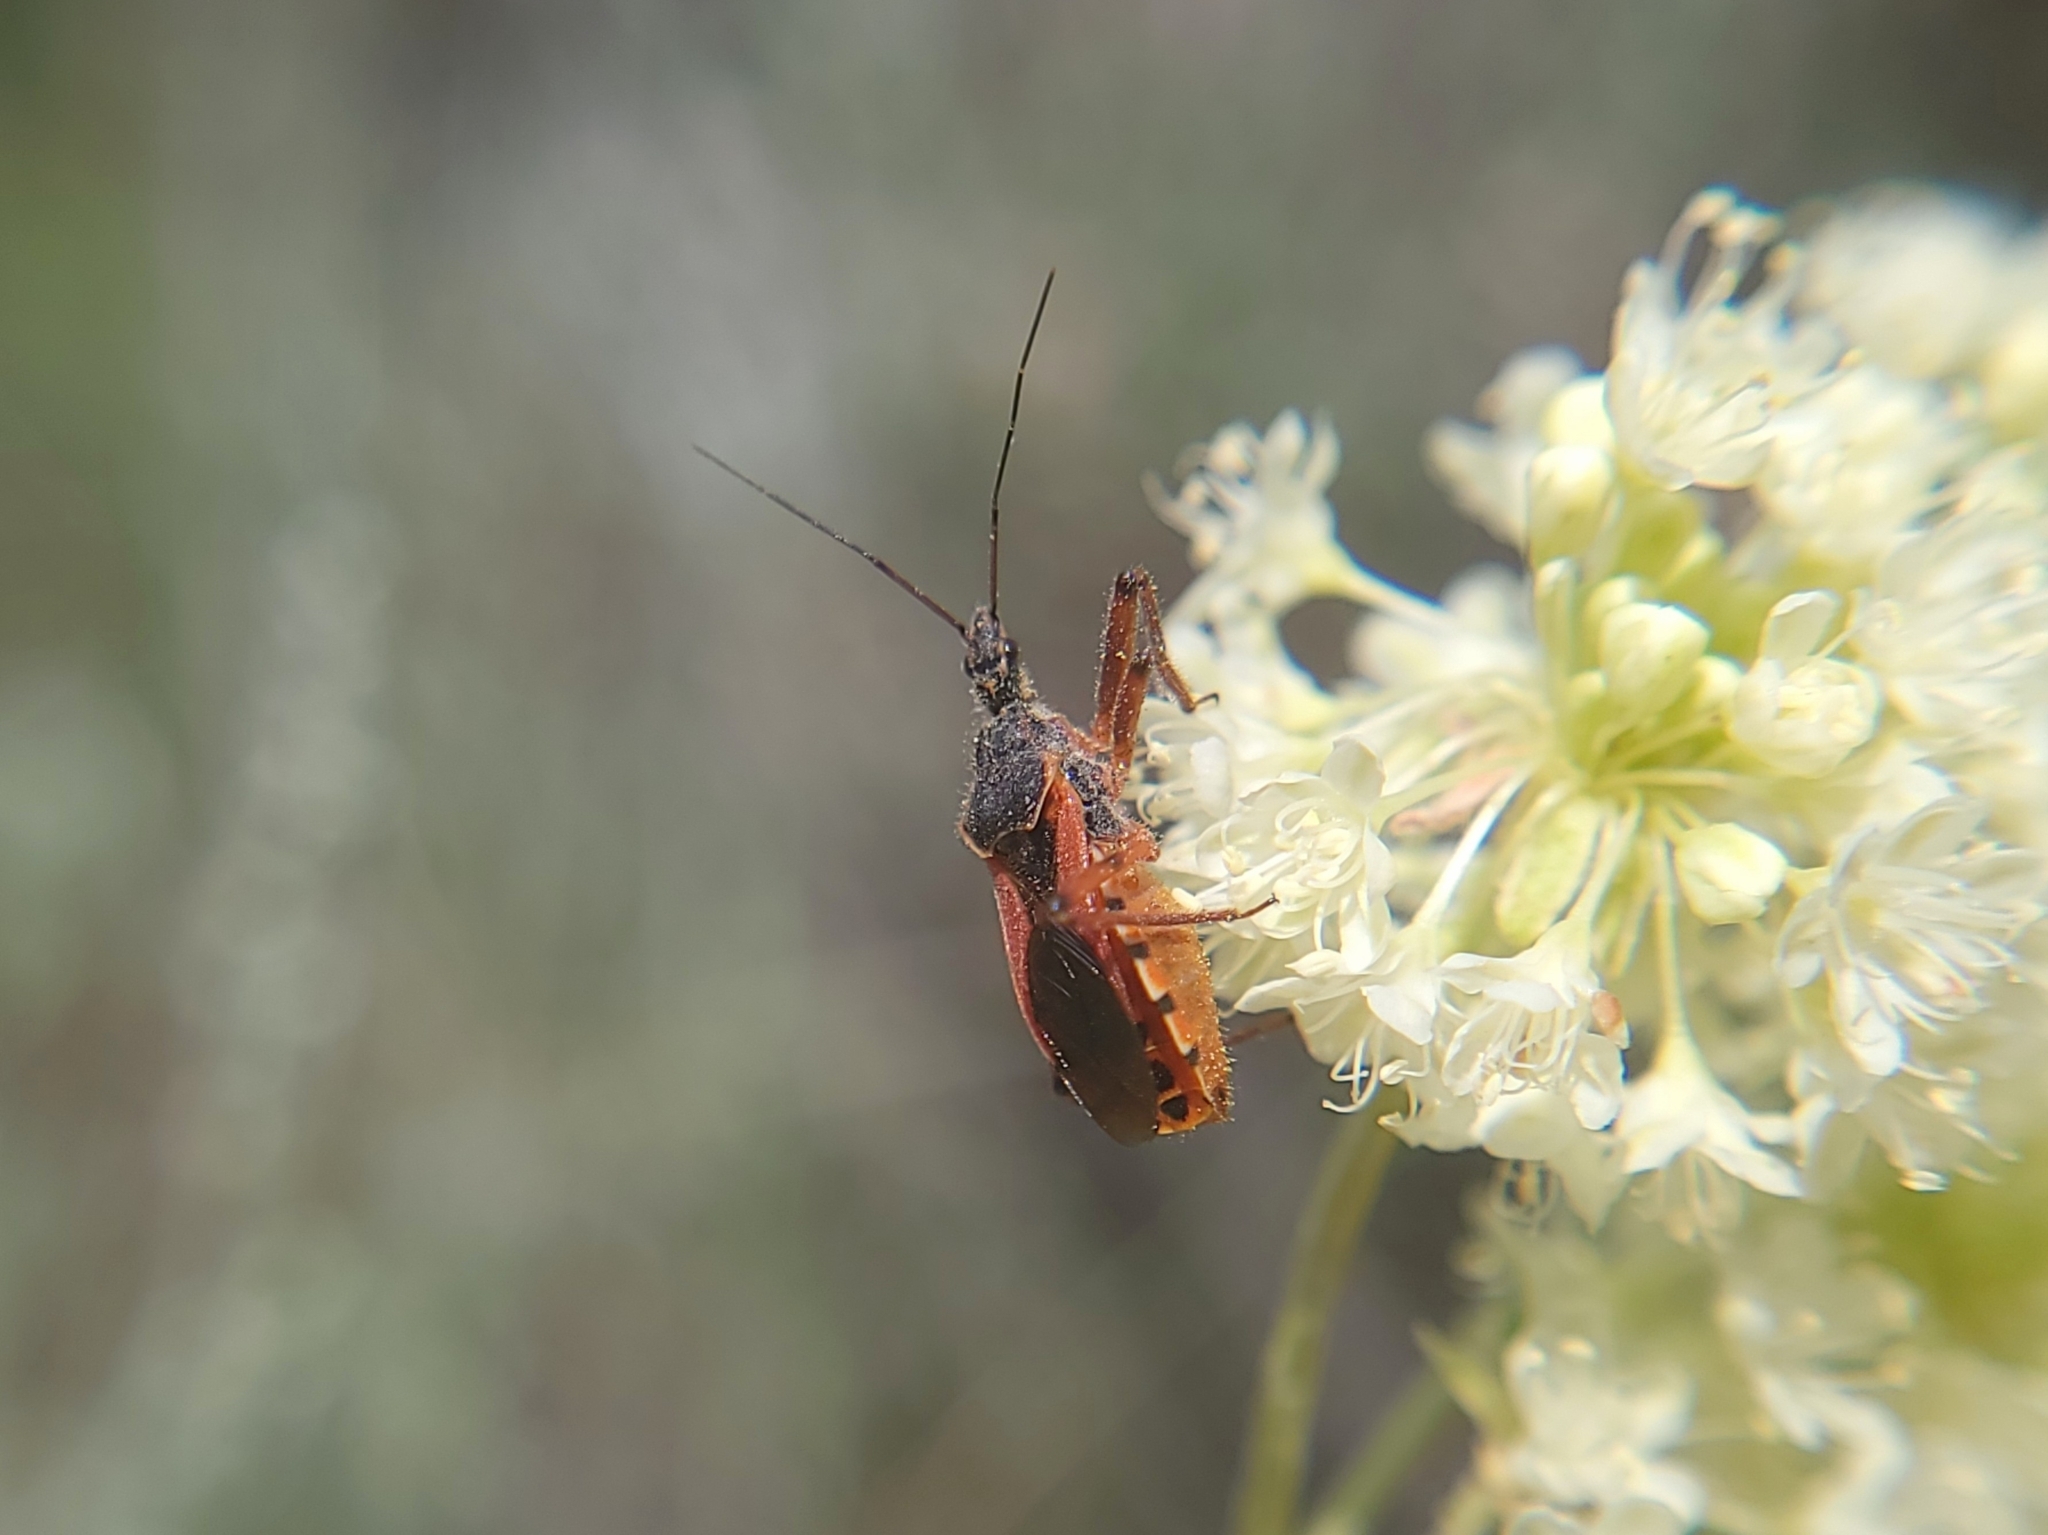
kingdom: Animalia
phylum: Arthropoda
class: Insecta
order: Hemiptera
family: Reduviidae
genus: Rhynocoris
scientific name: Rhynocoris ventralis
